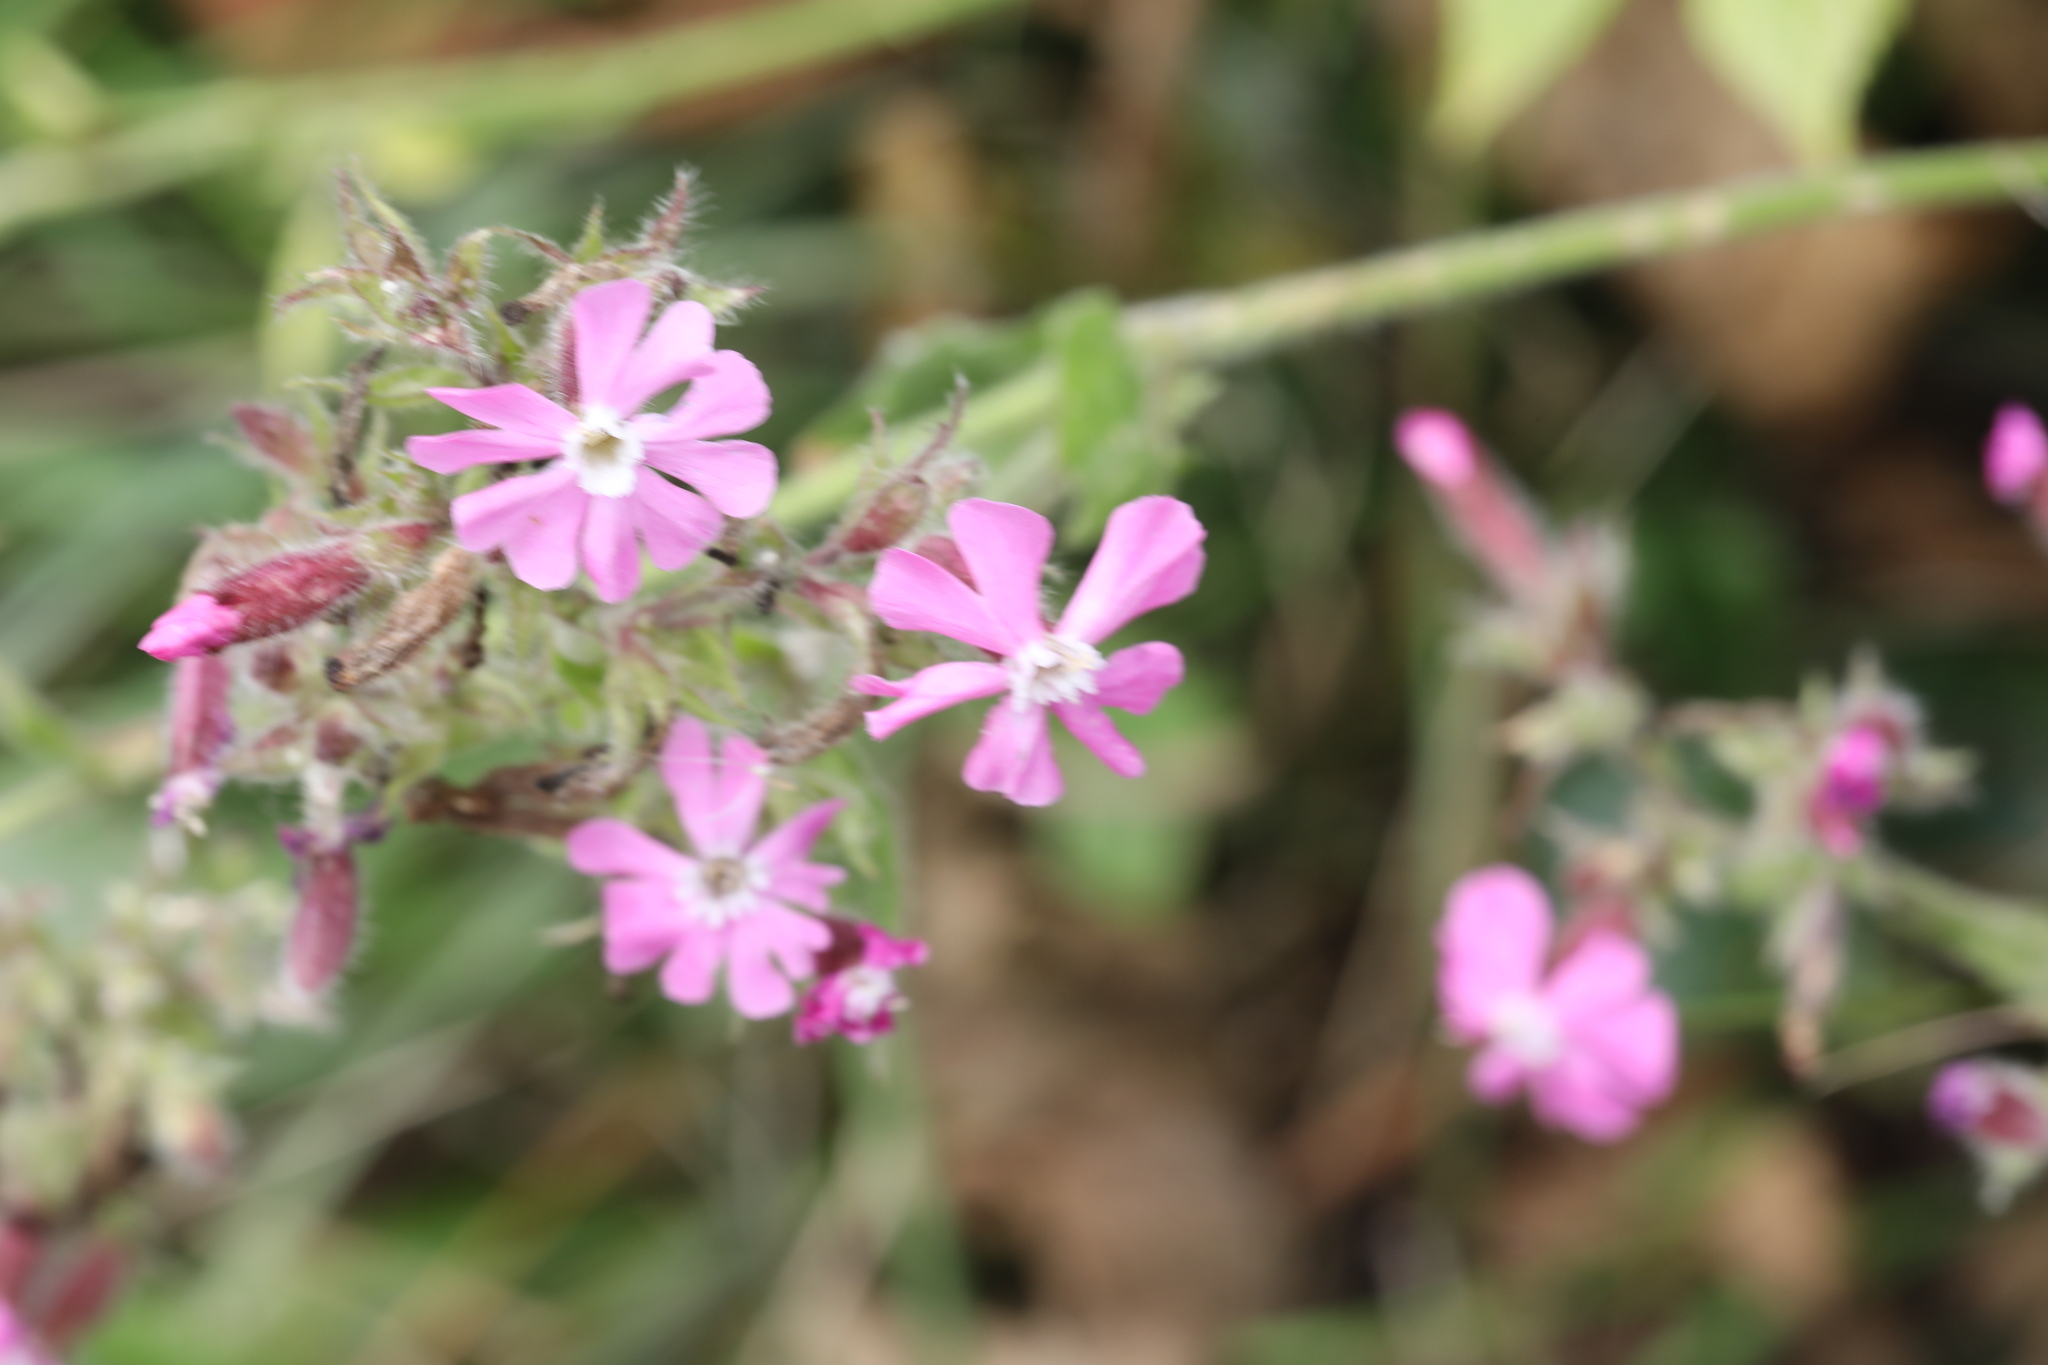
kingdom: Plantae
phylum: Tracheophyta
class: Magnoliopsida
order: Caryophyllales
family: Caryophyllaceae
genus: Silene
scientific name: Silene dioica
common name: Red campion
